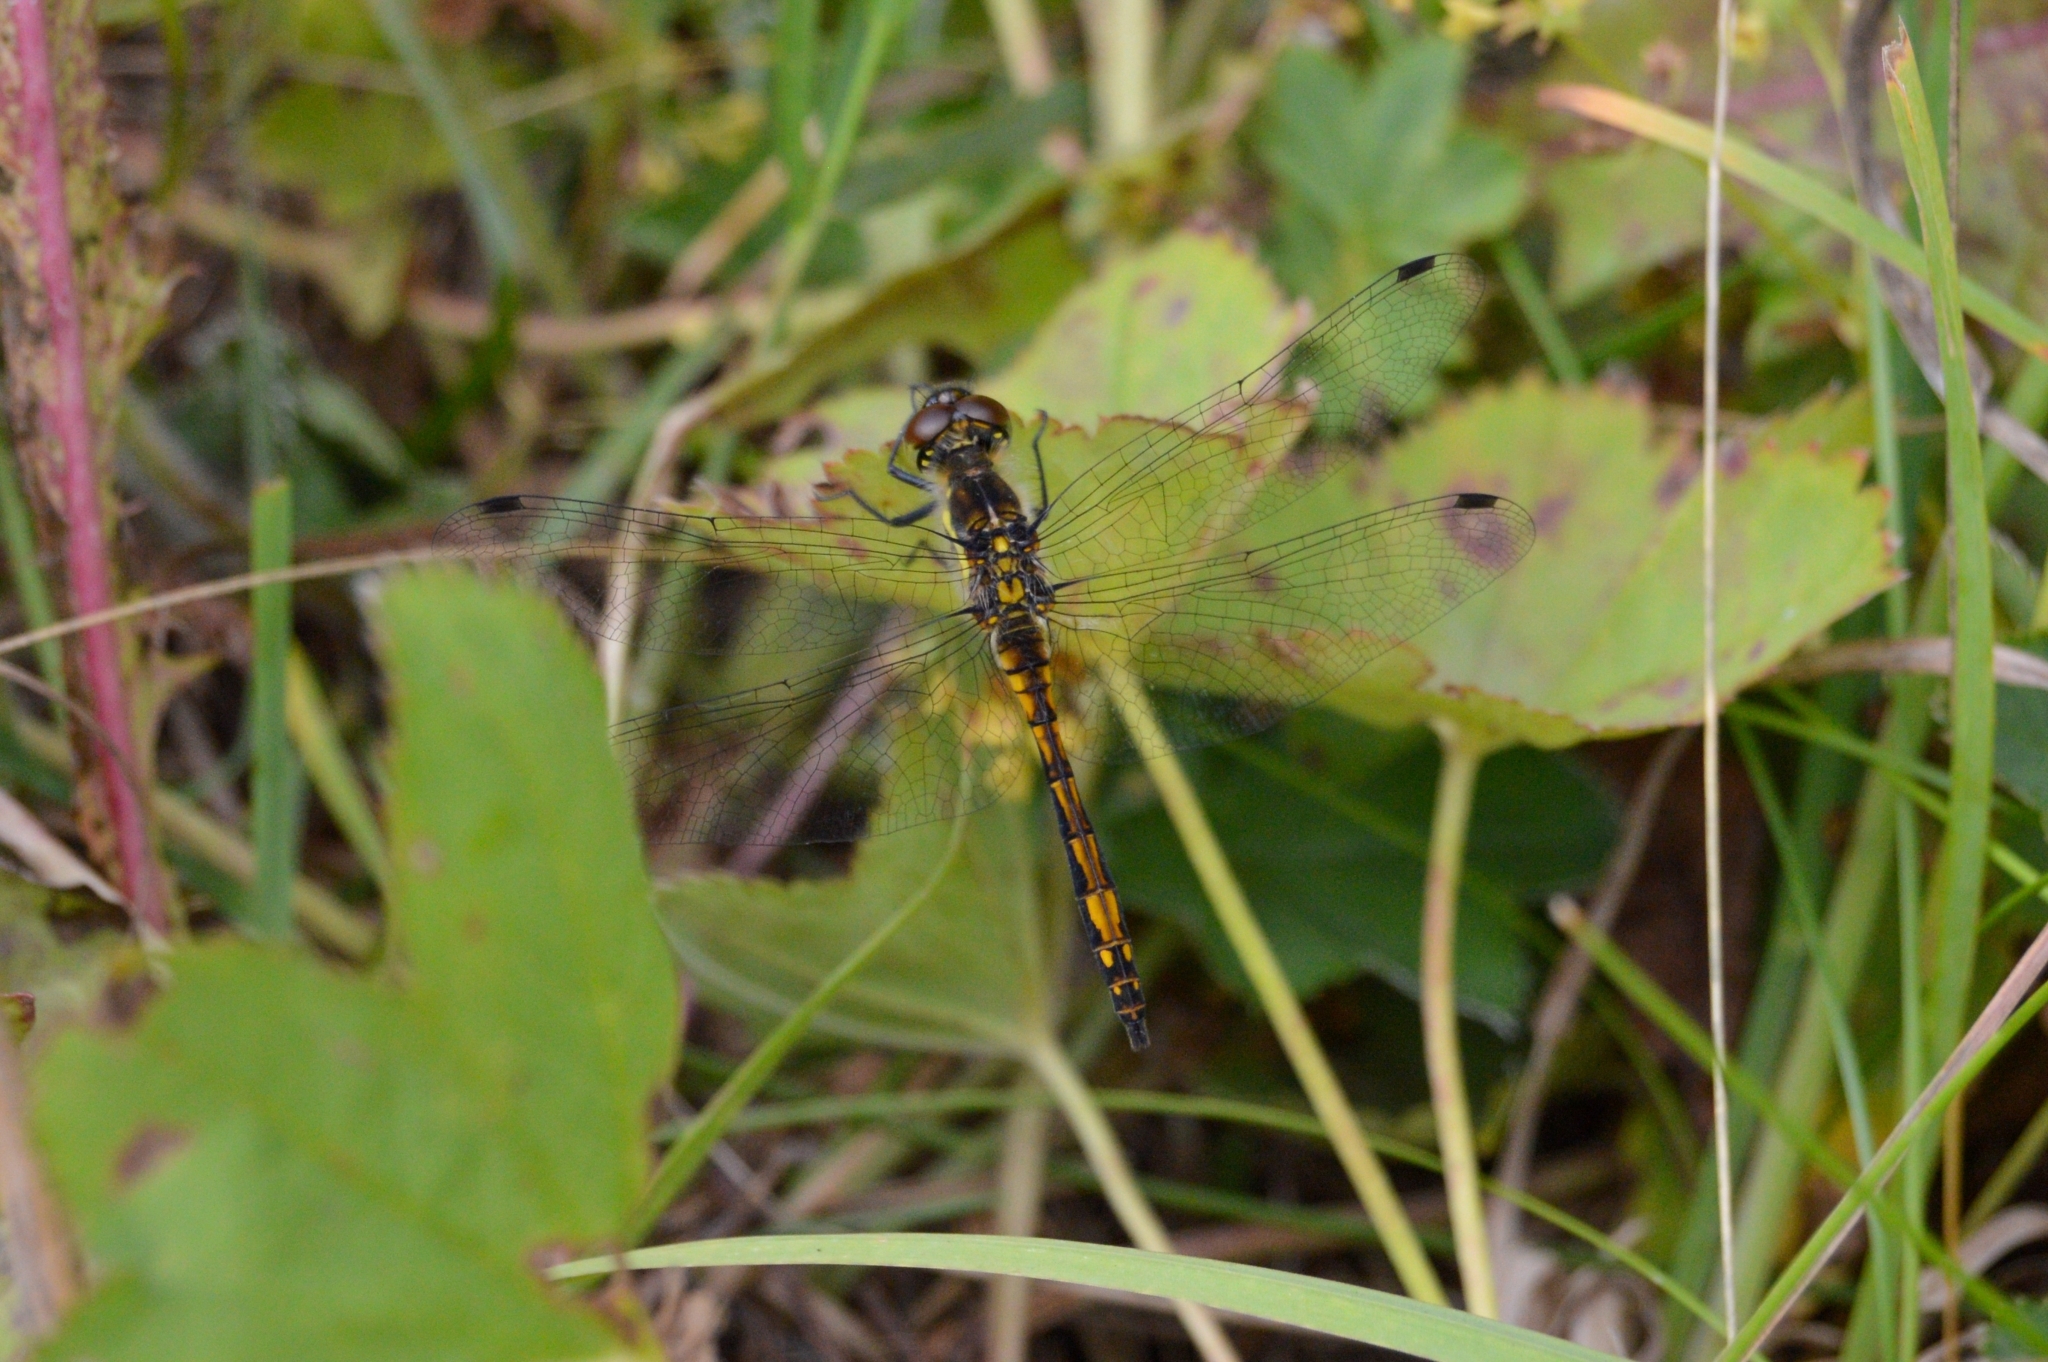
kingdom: Animalia
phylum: Arthropoda
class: Insecta
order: Odonata
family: Libellulidae
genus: Sympetrum
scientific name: Sympetrum danae
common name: Black darter
